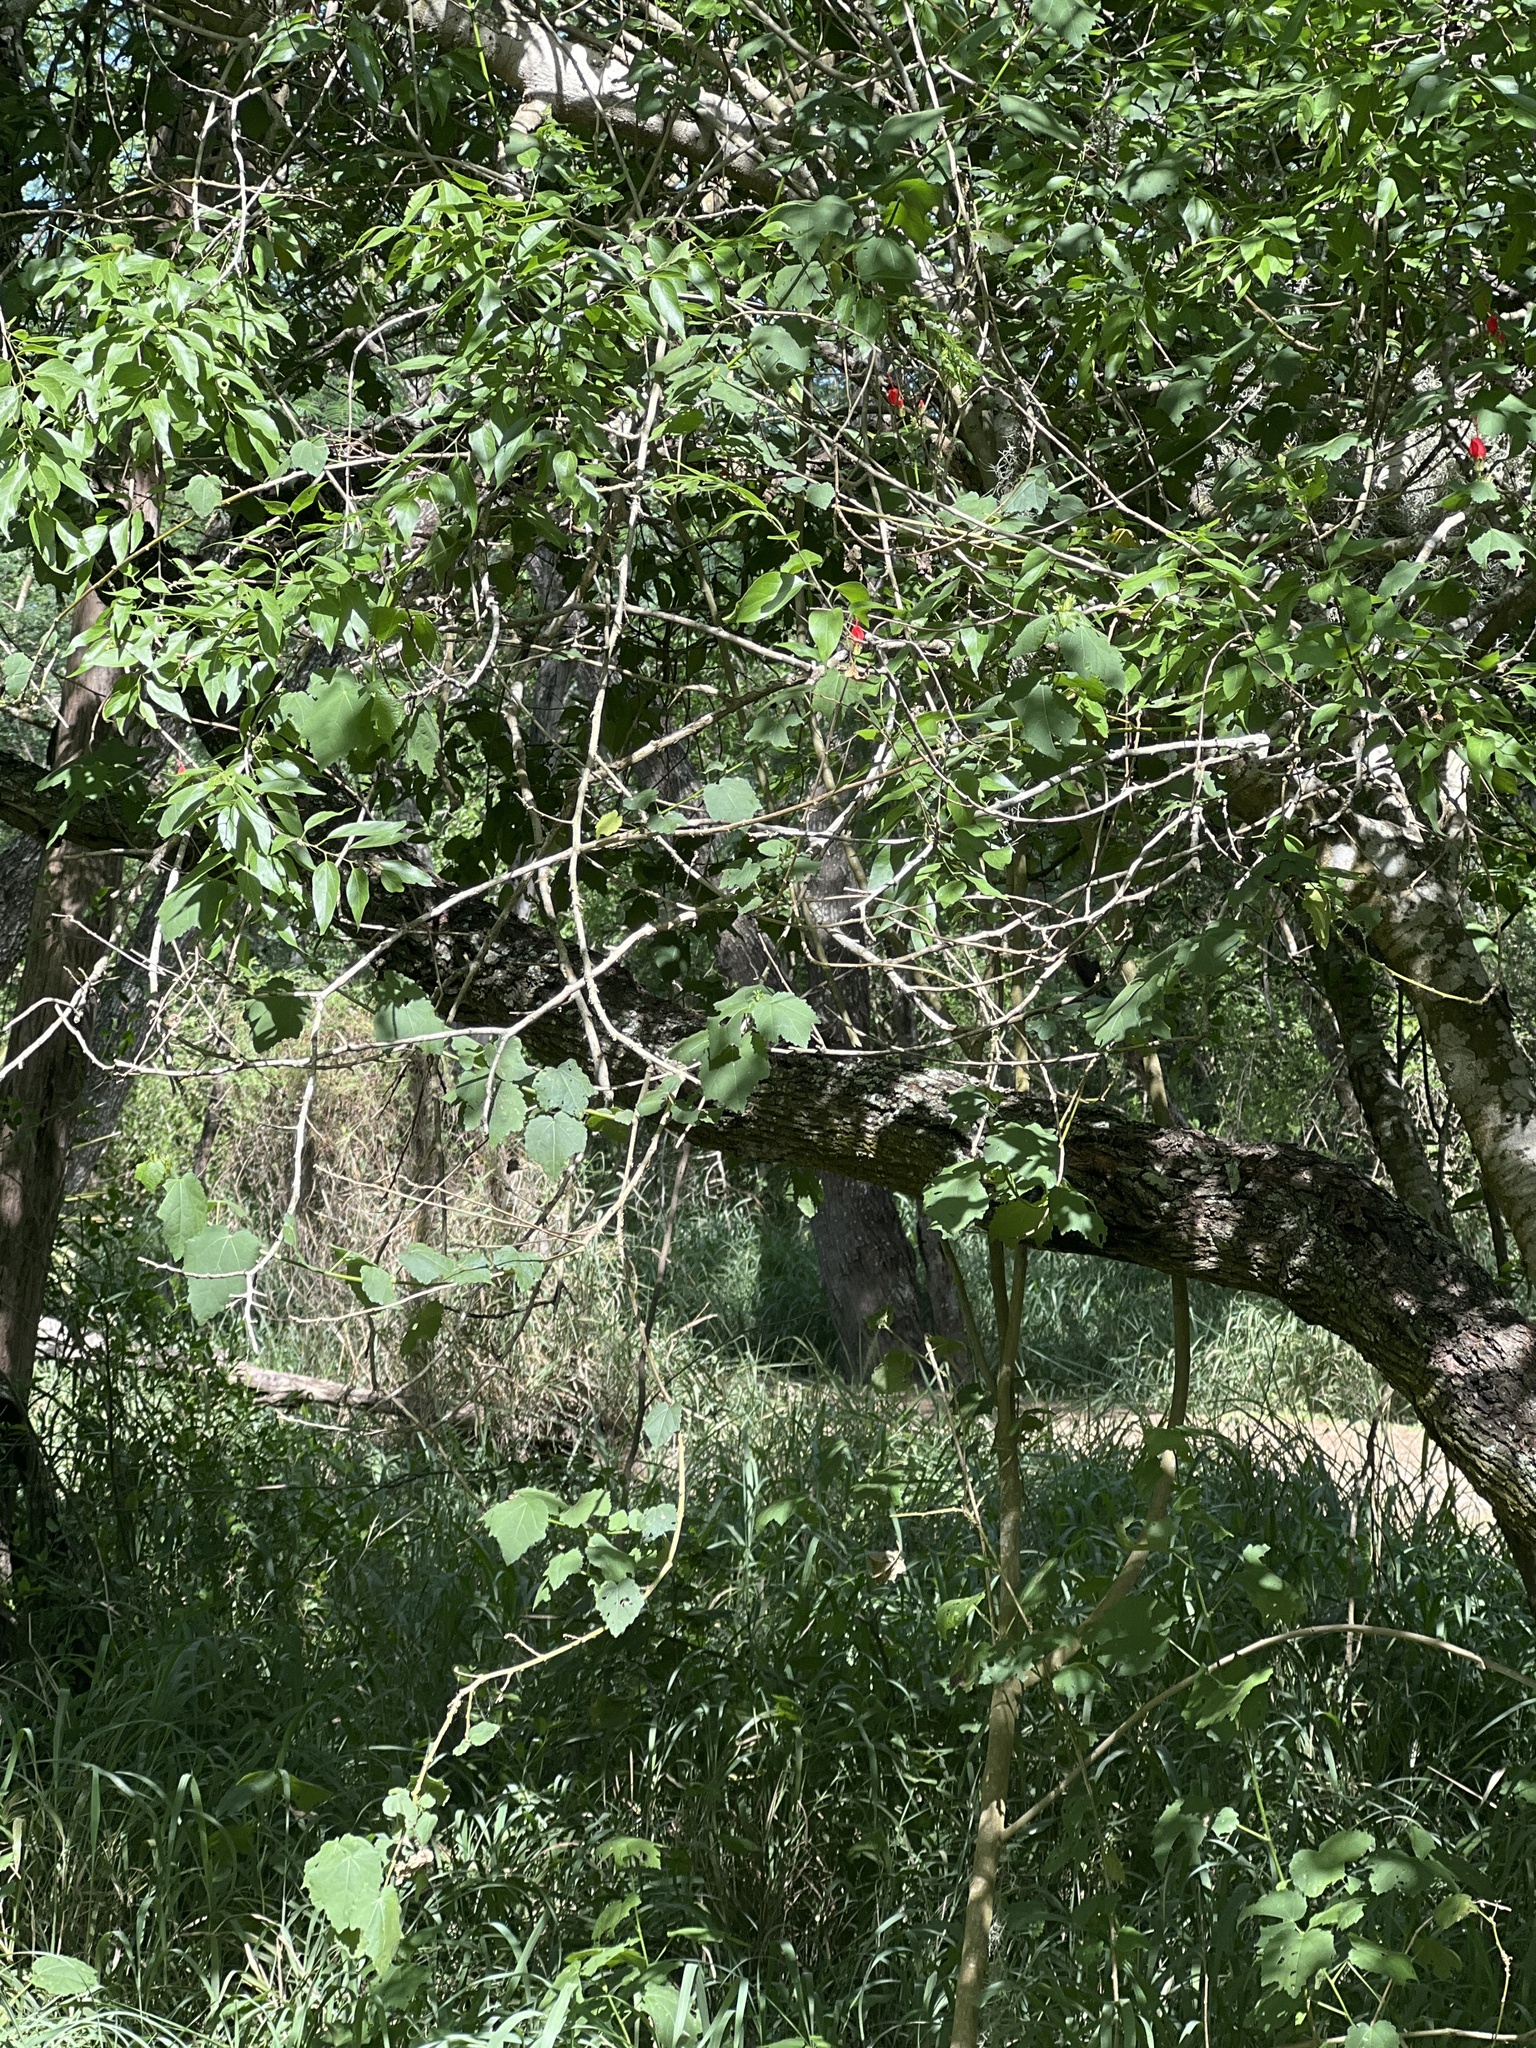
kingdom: Plantae
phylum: Tracheophyta
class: Magnoliopsida
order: Malvales
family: Malvaceae
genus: Malvaviscus
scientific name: Malvaviscus arboreus
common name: Wax mallow
